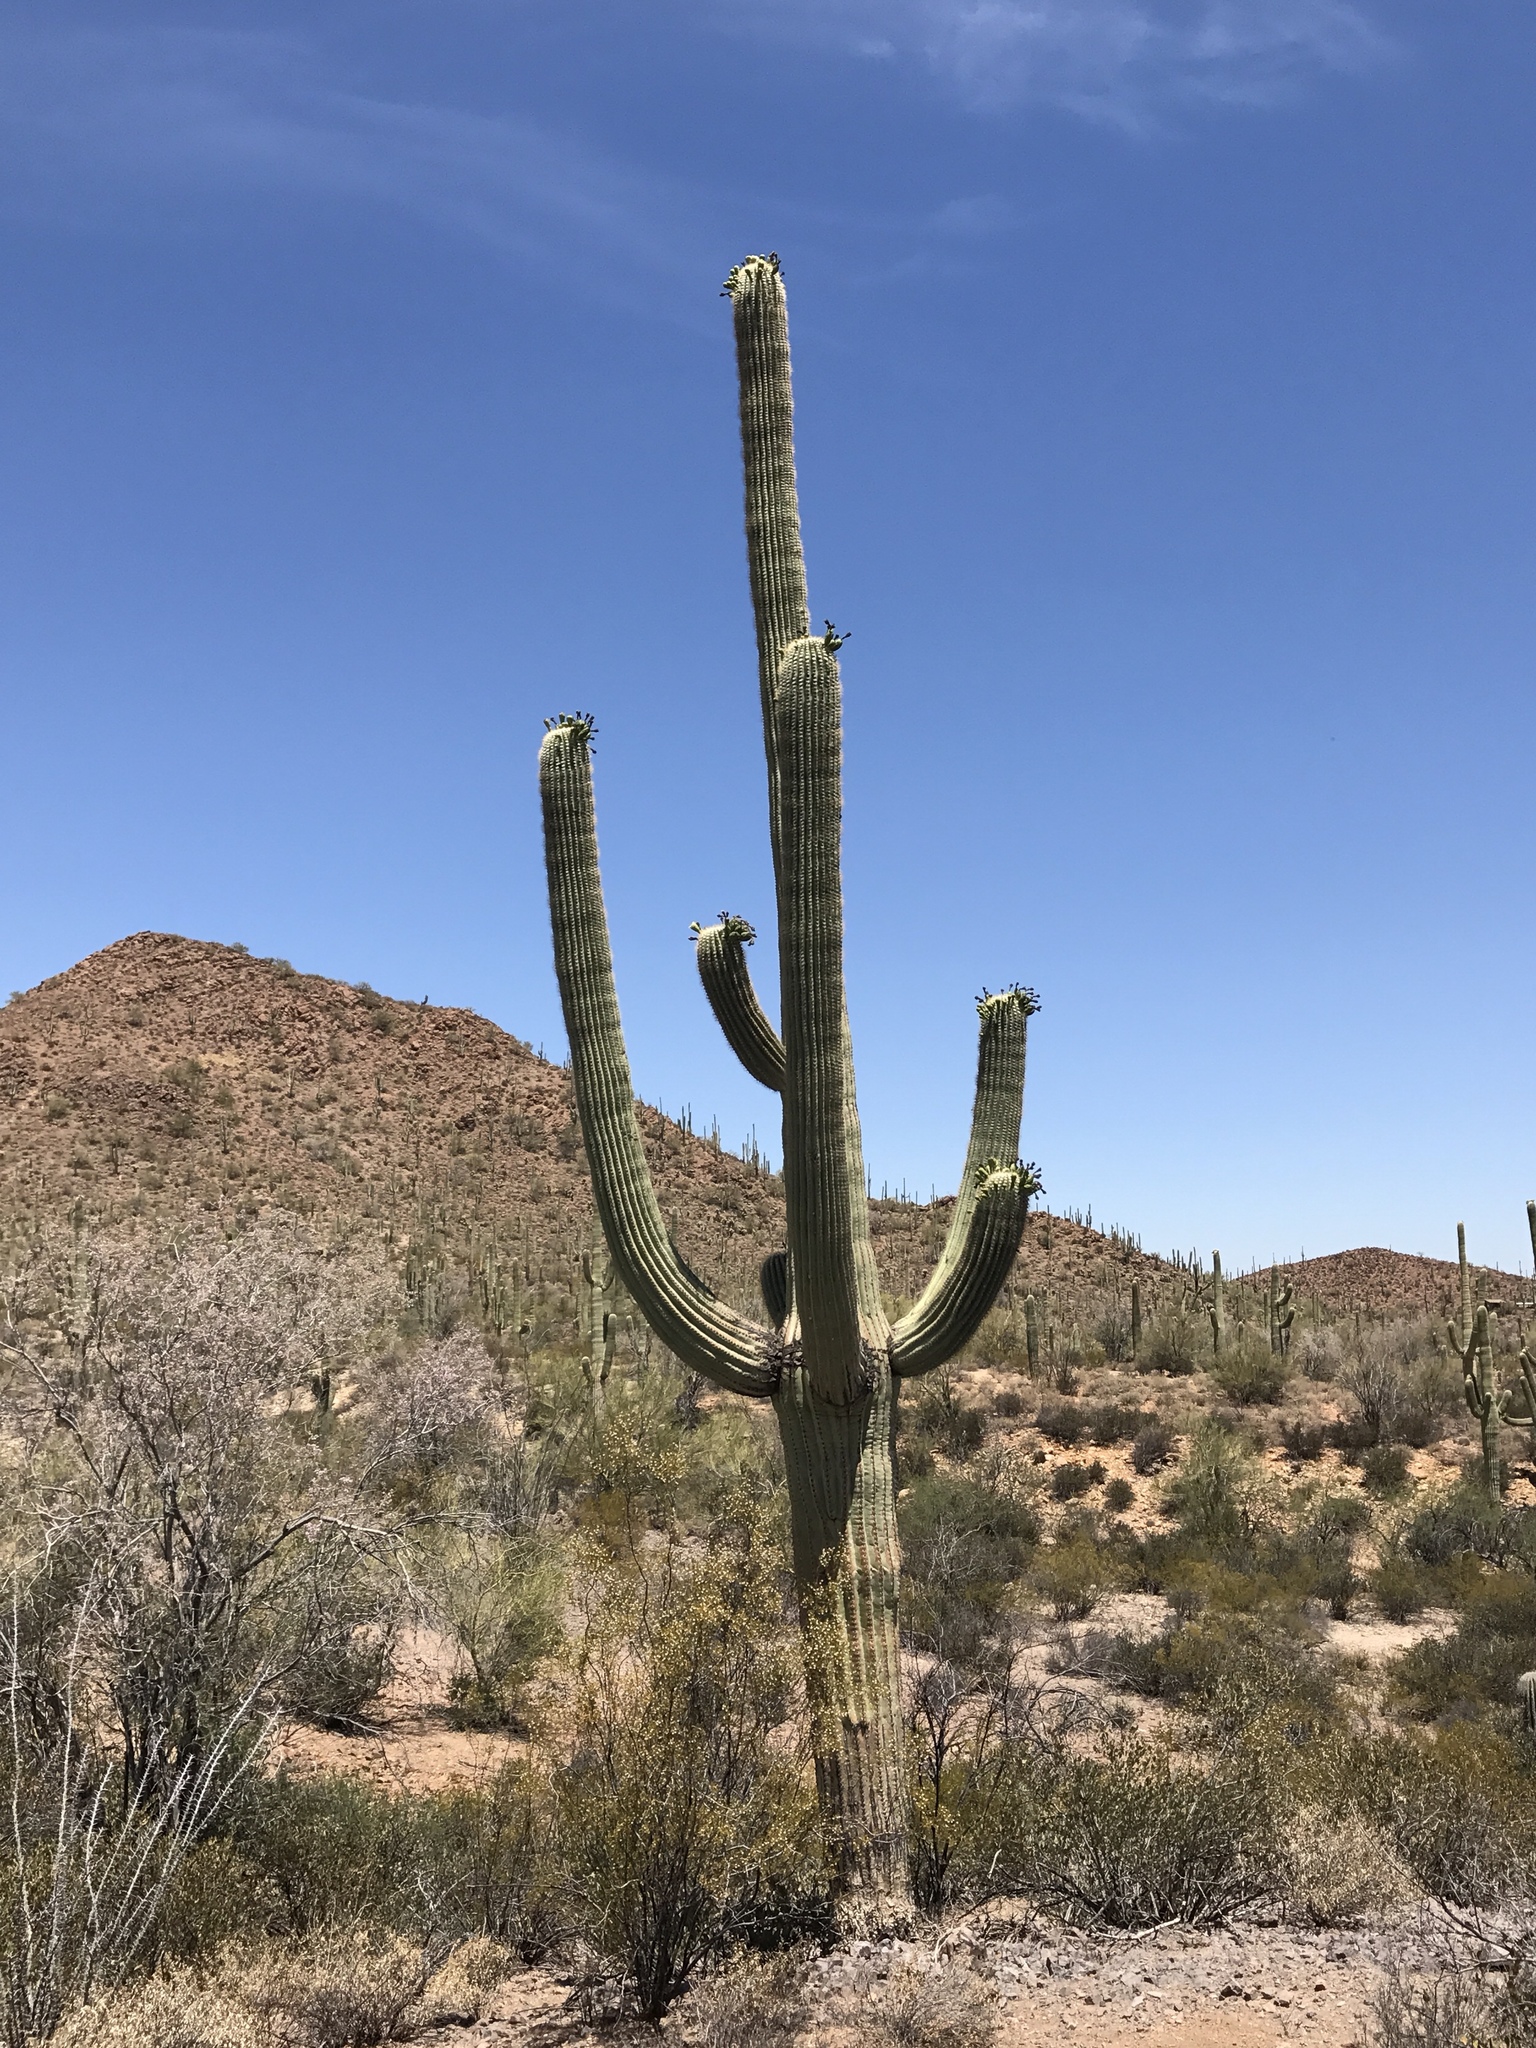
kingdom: Plantae
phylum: Tracheophyta
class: Magnoliopsida
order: Caryophyllales
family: Cactaceae
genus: Carnegiea
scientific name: Carnegiea gigantea
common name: Saguaro
